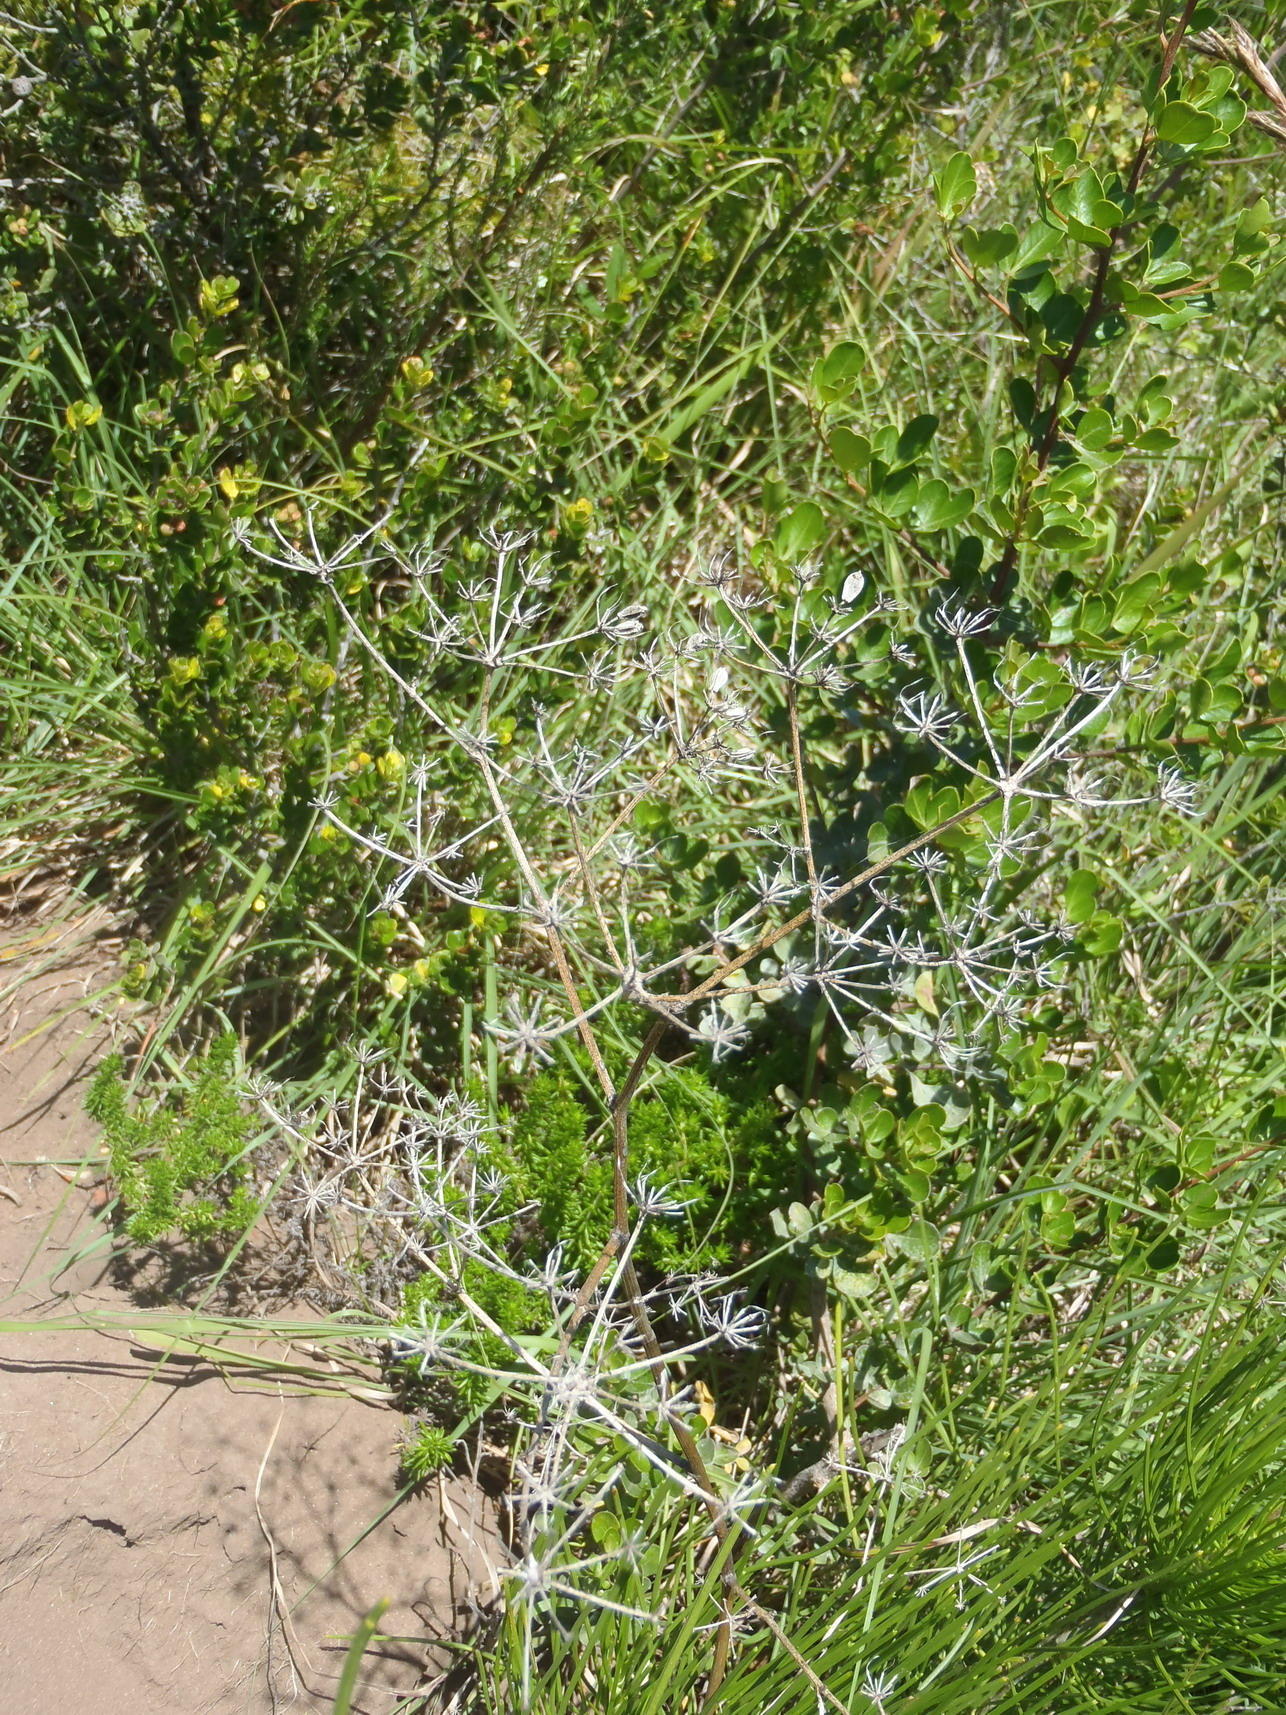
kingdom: Plantae
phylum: Tracheophyta
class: Magnoliopsida
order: Apiales
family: Apiaceae
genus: Anginon
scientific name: Anginon difforme
